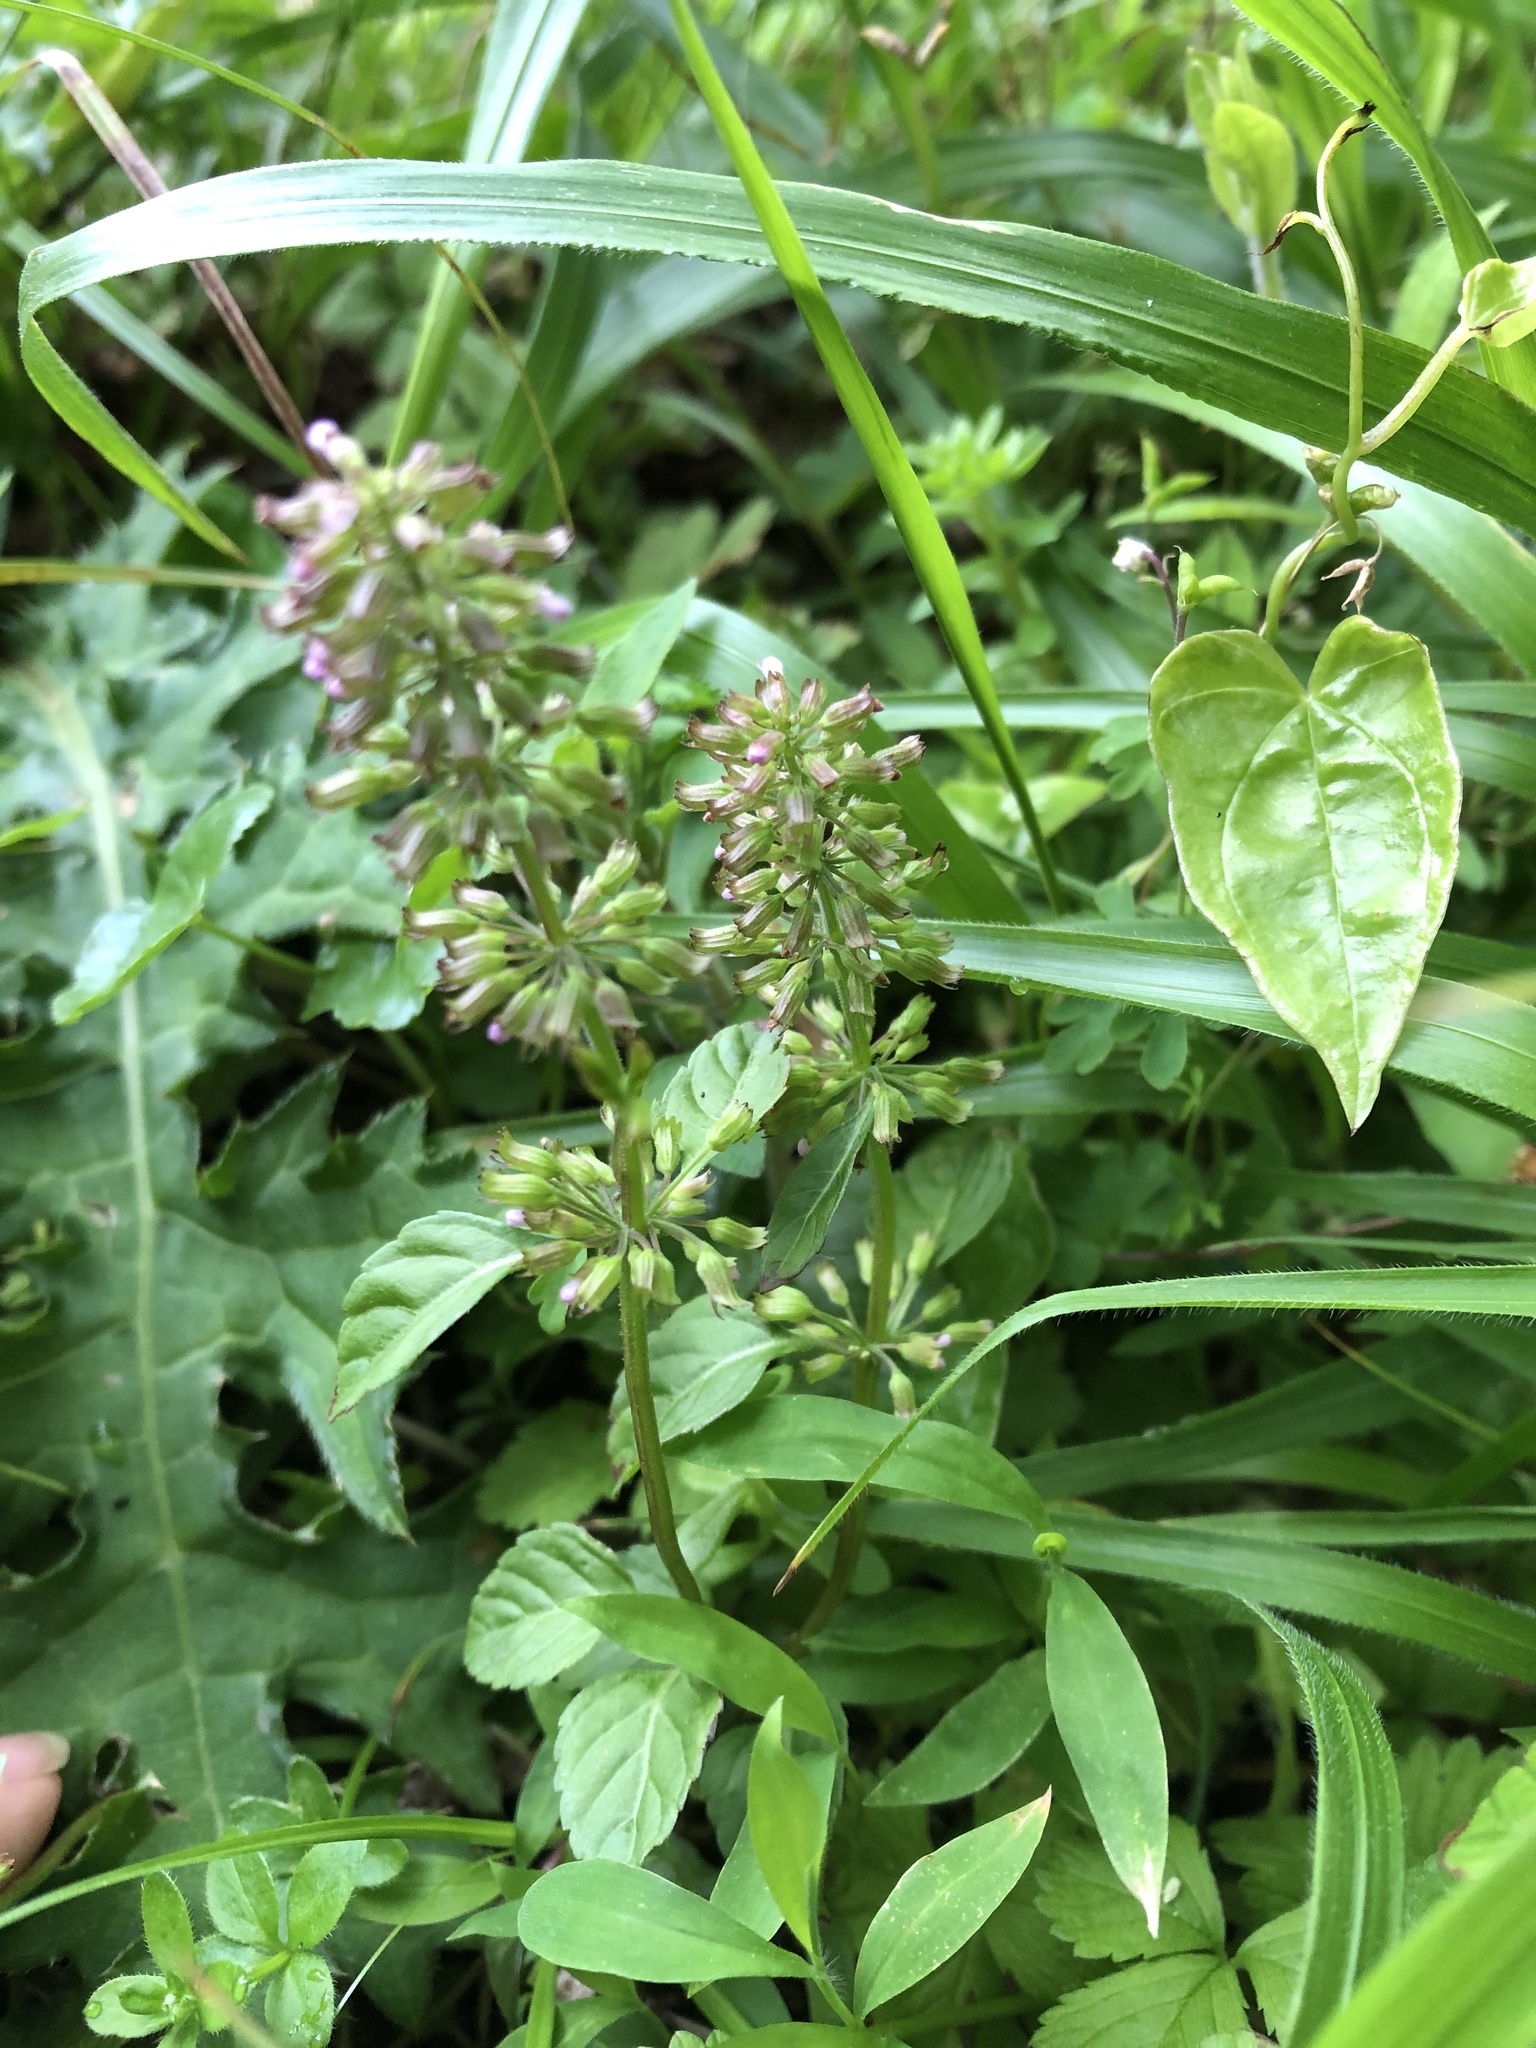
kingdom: Plantae
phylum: Tracheophyta
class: Magnoliopsida
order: Lamiales
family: Lamiaceae
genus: Clinopodium
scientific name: Clinopodium gracile
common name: Slender wild basil
